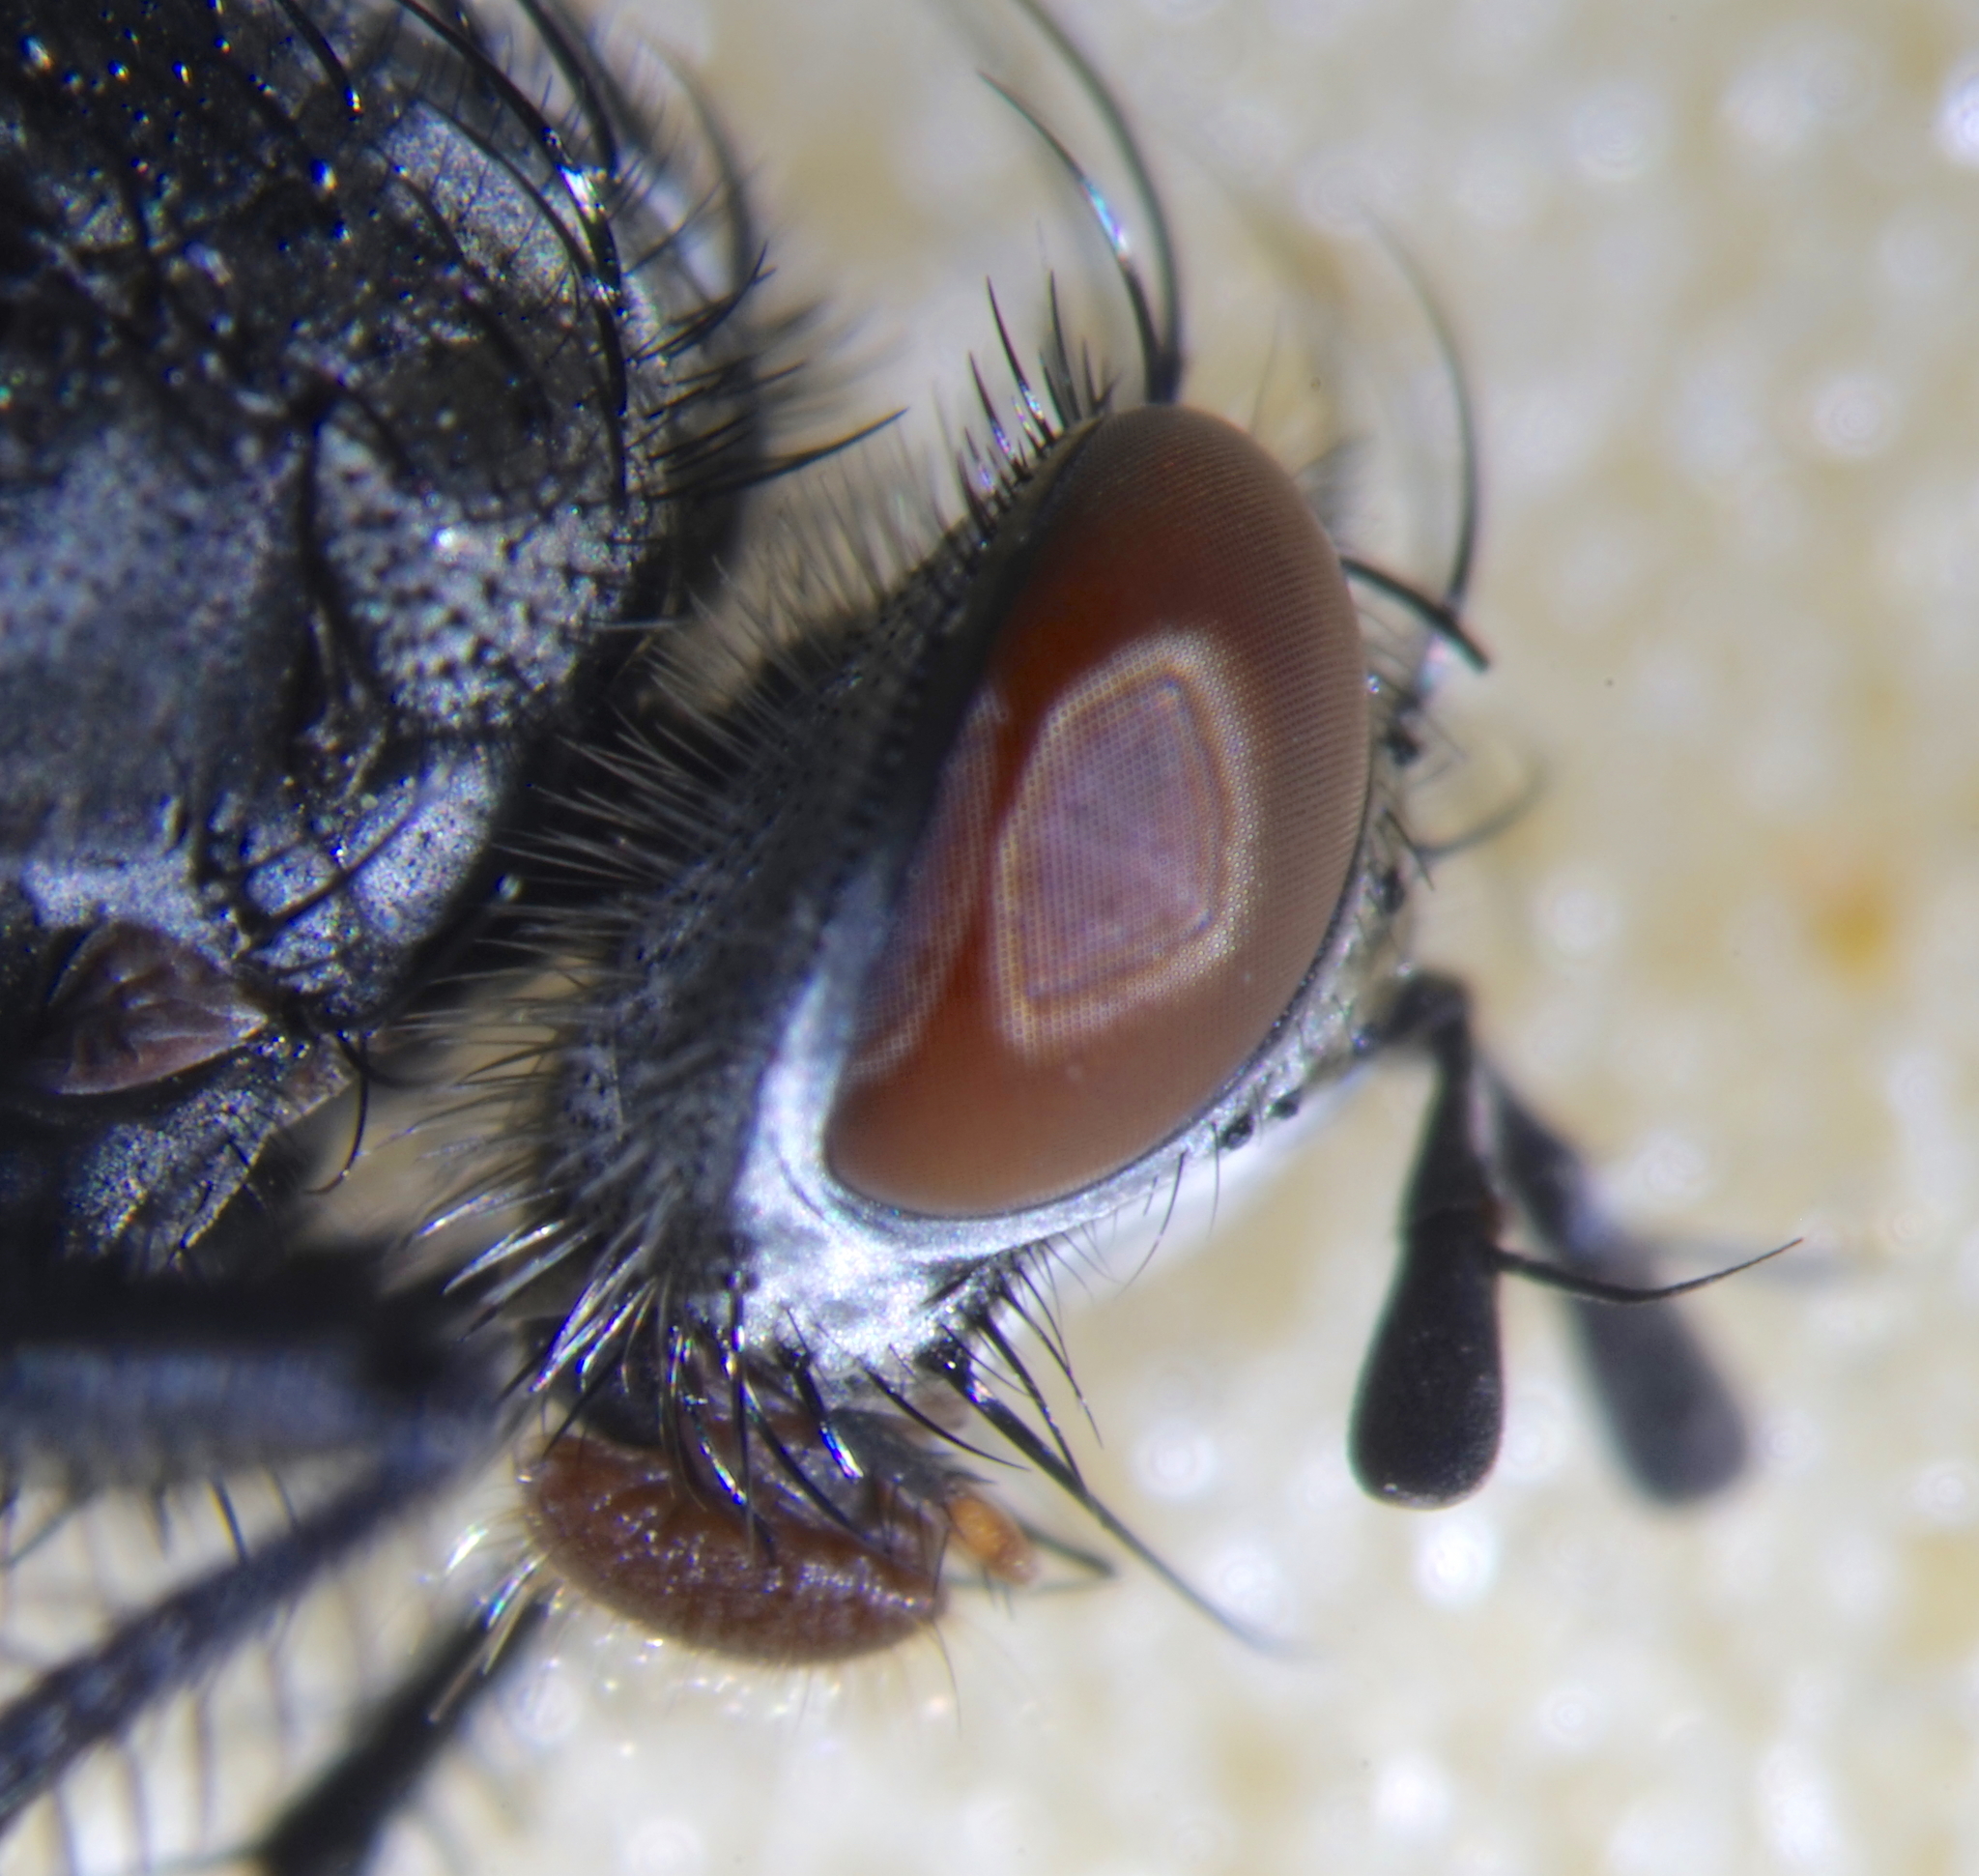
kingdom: Animalia
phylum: Arthropoda
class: Insecta
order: Diptera
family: Tachinidae
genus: Voria
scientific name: Voria ruralis
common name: Parasitic fly
